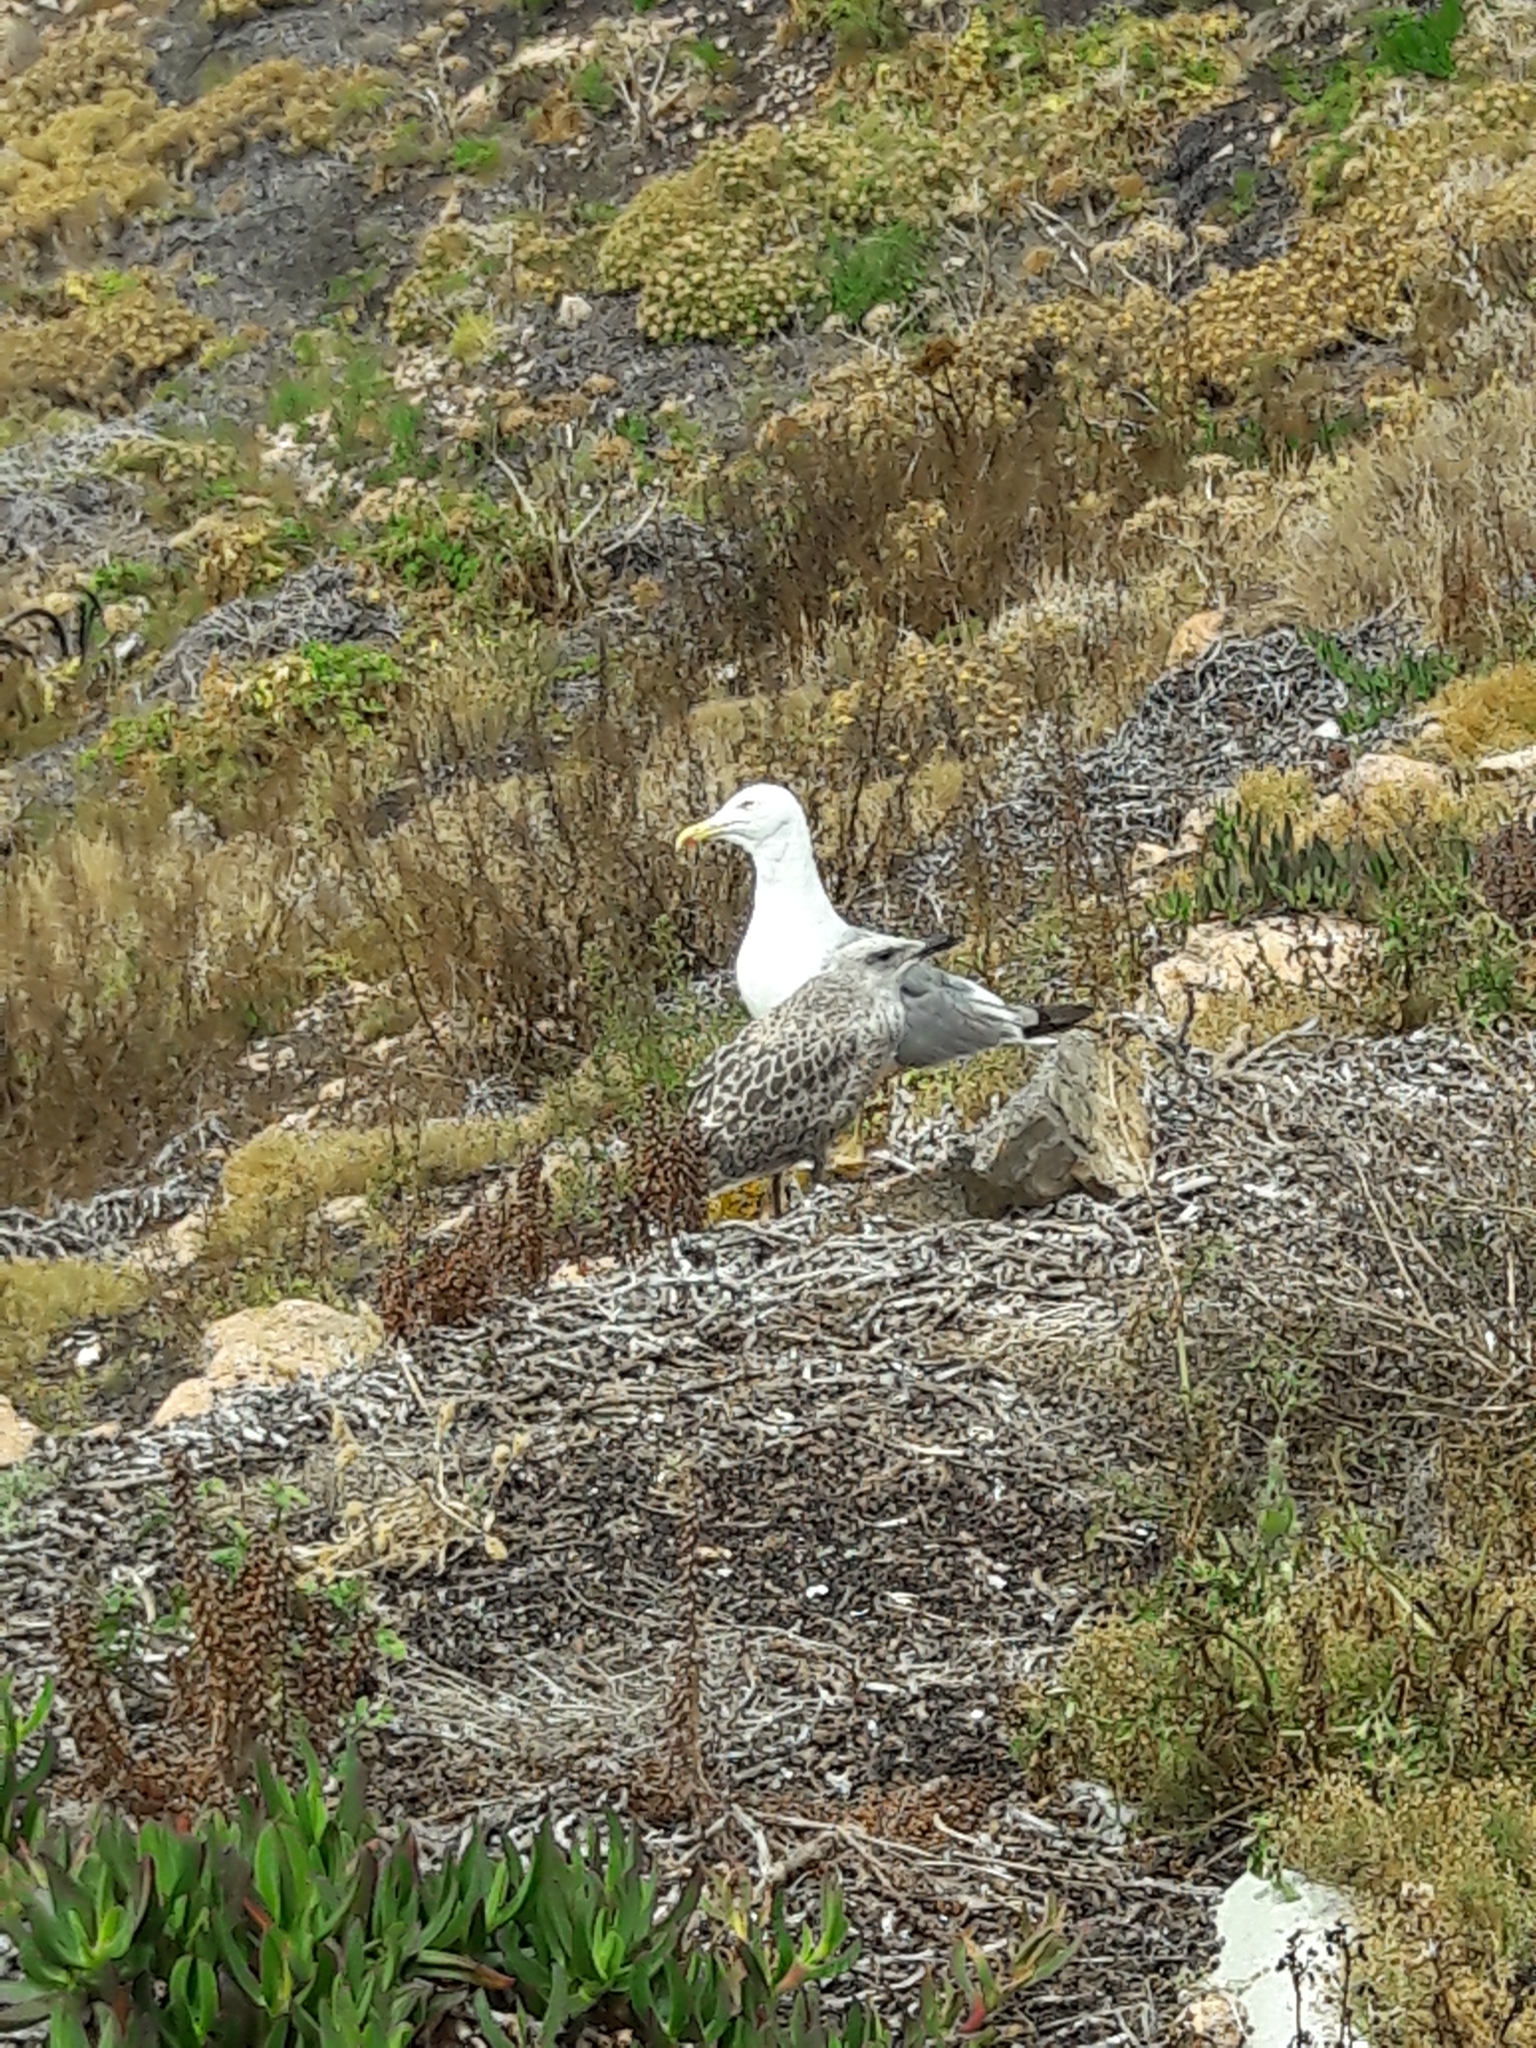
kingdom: Animalia
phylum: Chordata
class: Aves
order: Charadriiformes
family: Laridae
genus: Larus
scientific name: Larus michahellis
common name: Yellow-legged gull
